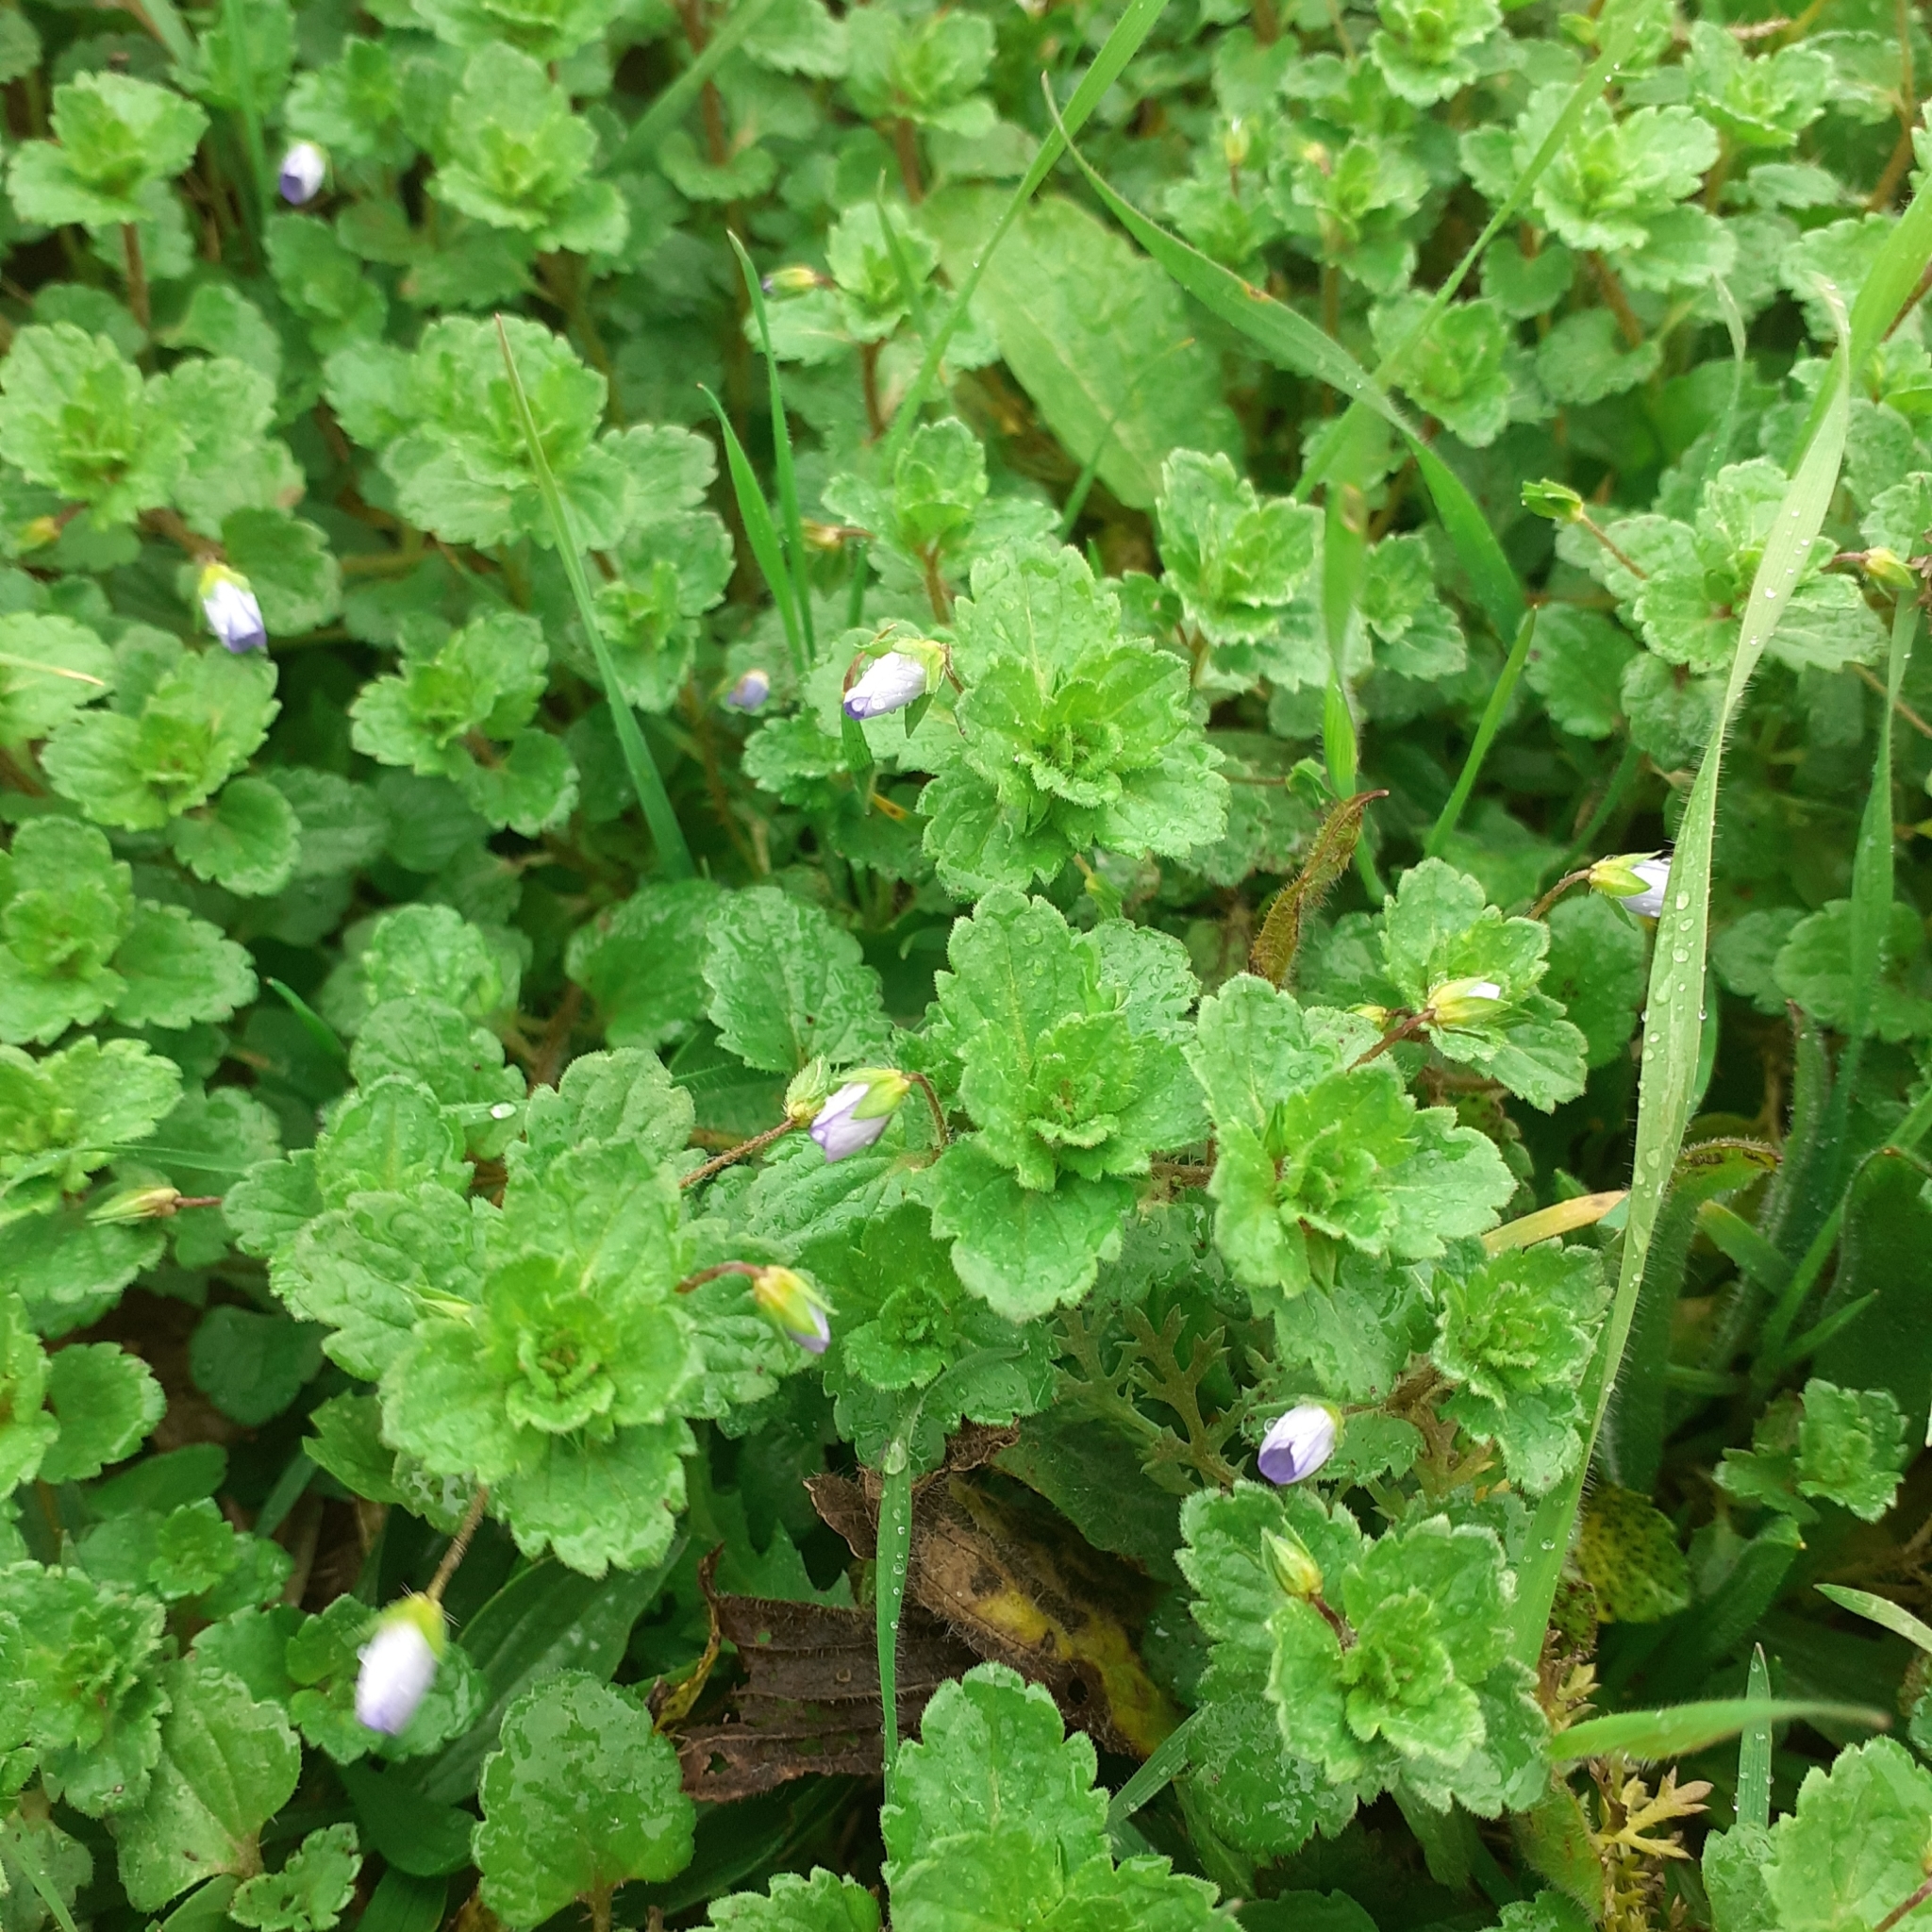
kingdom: Plantae
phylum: Tracheophyta
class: Magnoliopsida
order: Lamiales
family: Plantaginaceae
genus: Veronica
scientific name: Veronica persica
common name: Common field-speedwell
